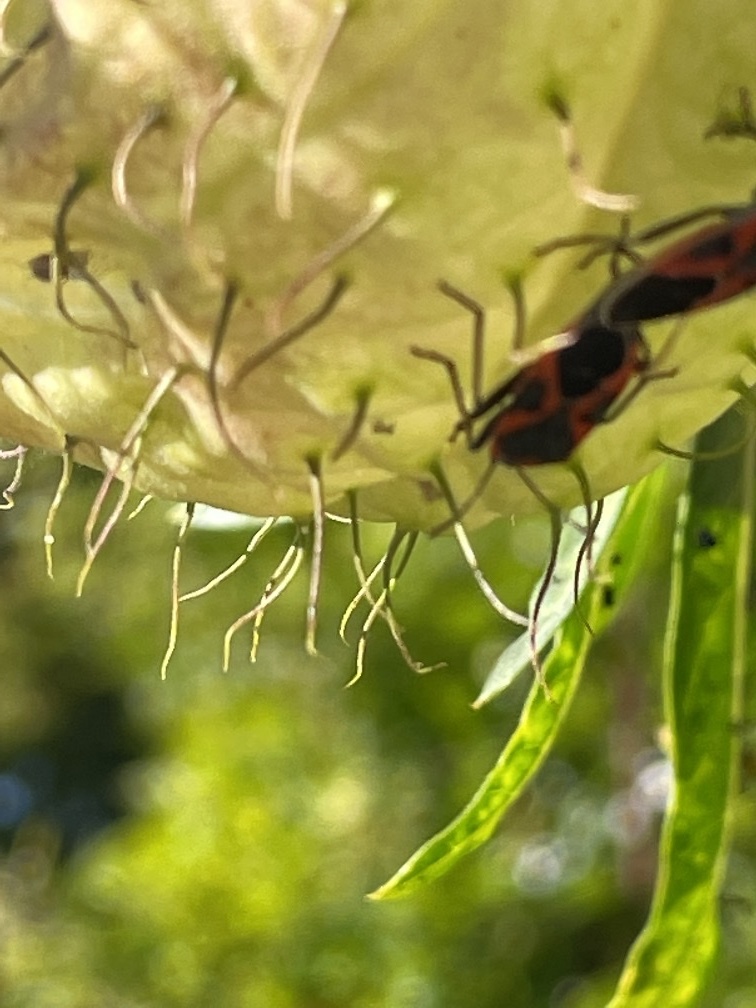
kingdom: Animalia
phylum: Arthropoda
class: Insecta
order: Hemiptera
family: Lygaeidae
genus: Lygaeus
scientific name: Lygaeus kalmii
